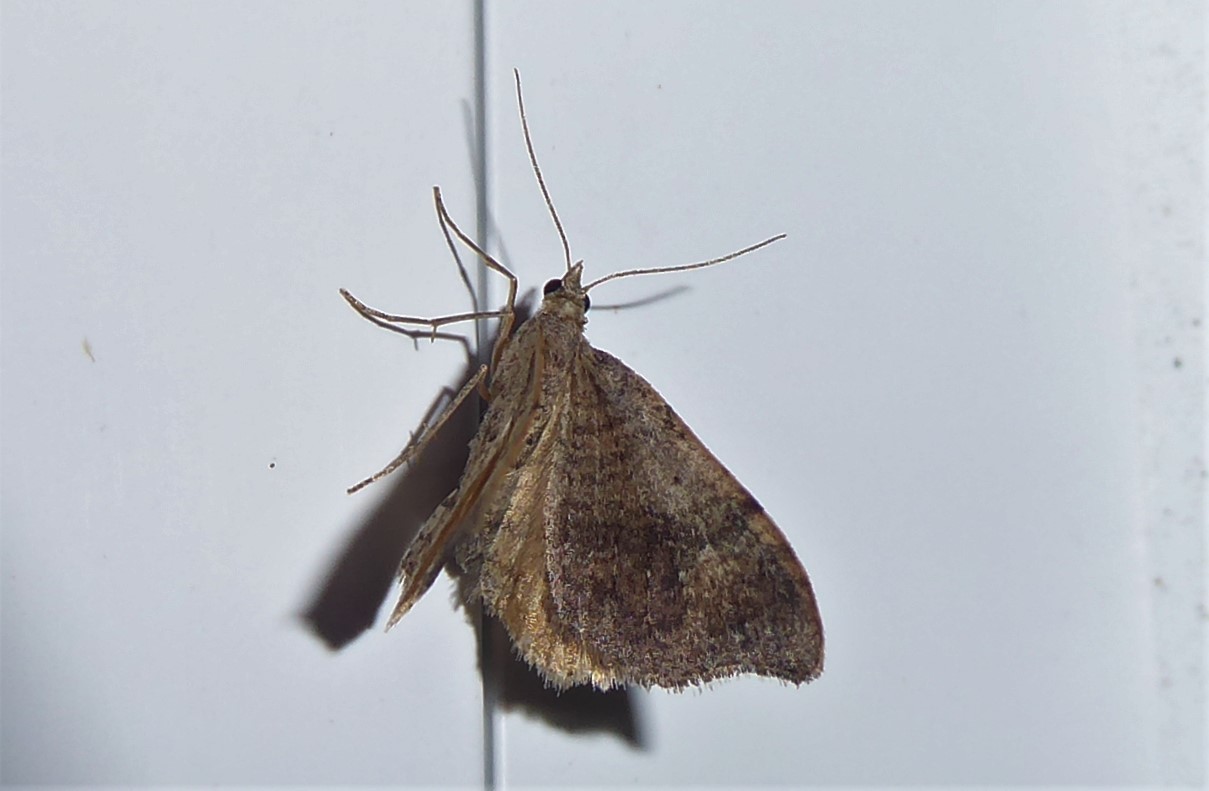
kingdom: Animalia
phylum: Arthropoda
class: Insecta
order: Lepidoptera
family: Geometridae
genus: Homodotis
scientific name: Homodotis megaspilata
